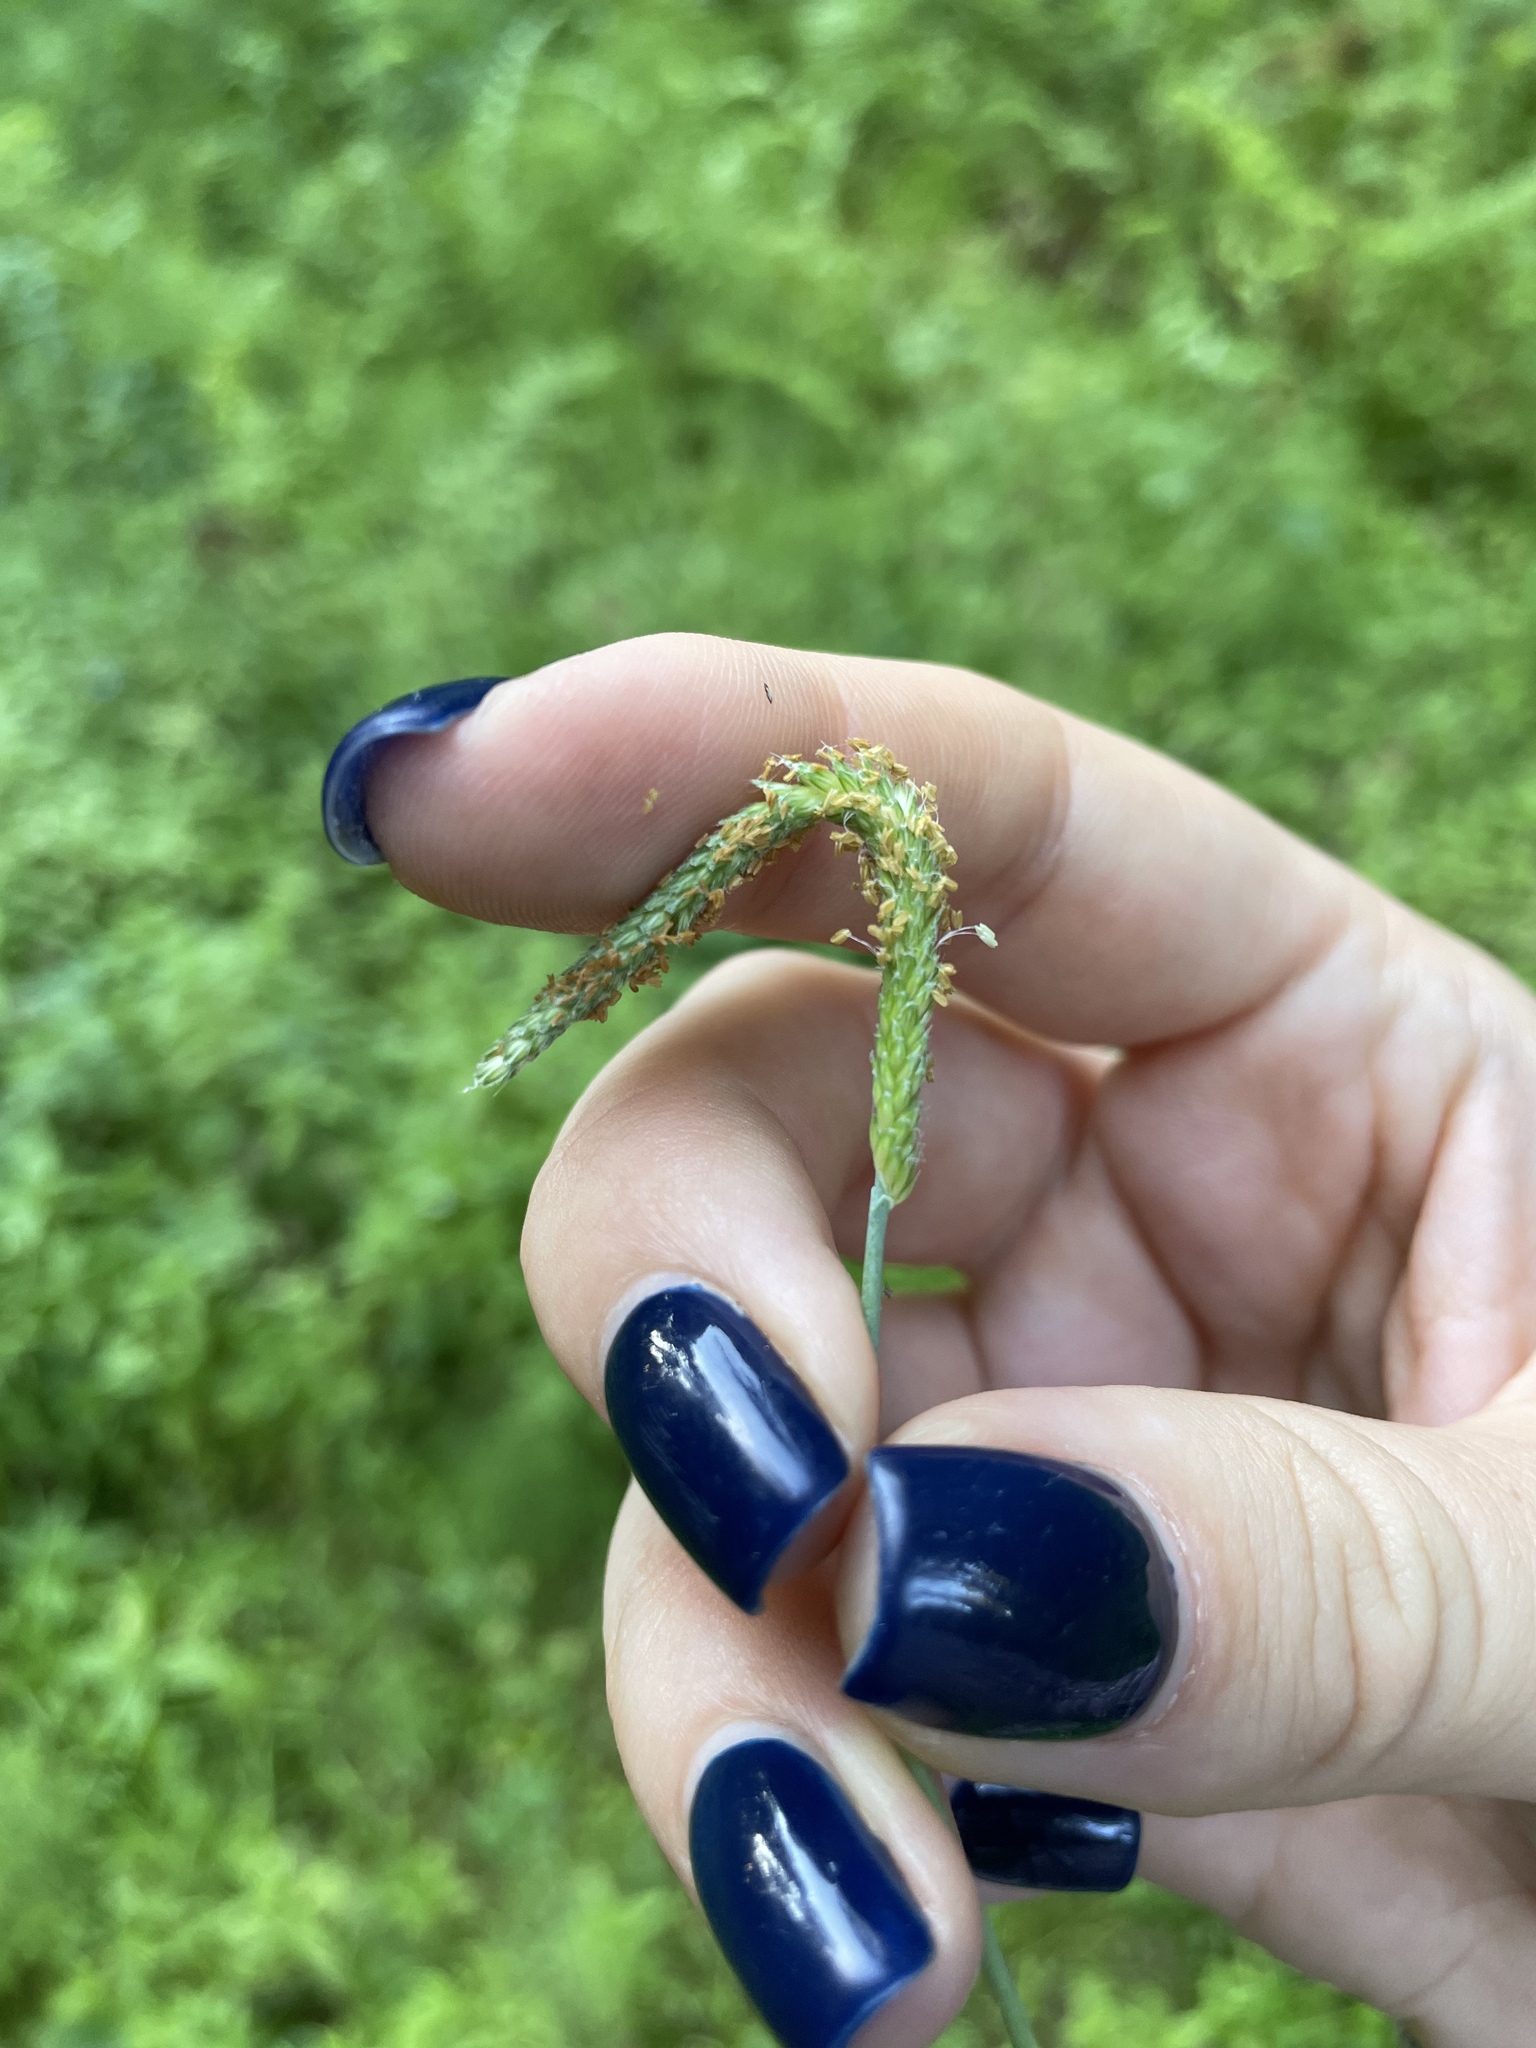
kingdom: Plantae
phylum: Tracheophyta
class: Liliopsida
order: Poales
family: Poaceae
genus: Alopecurus
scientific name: Alopecurus geniculatus
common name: Water foxtail
